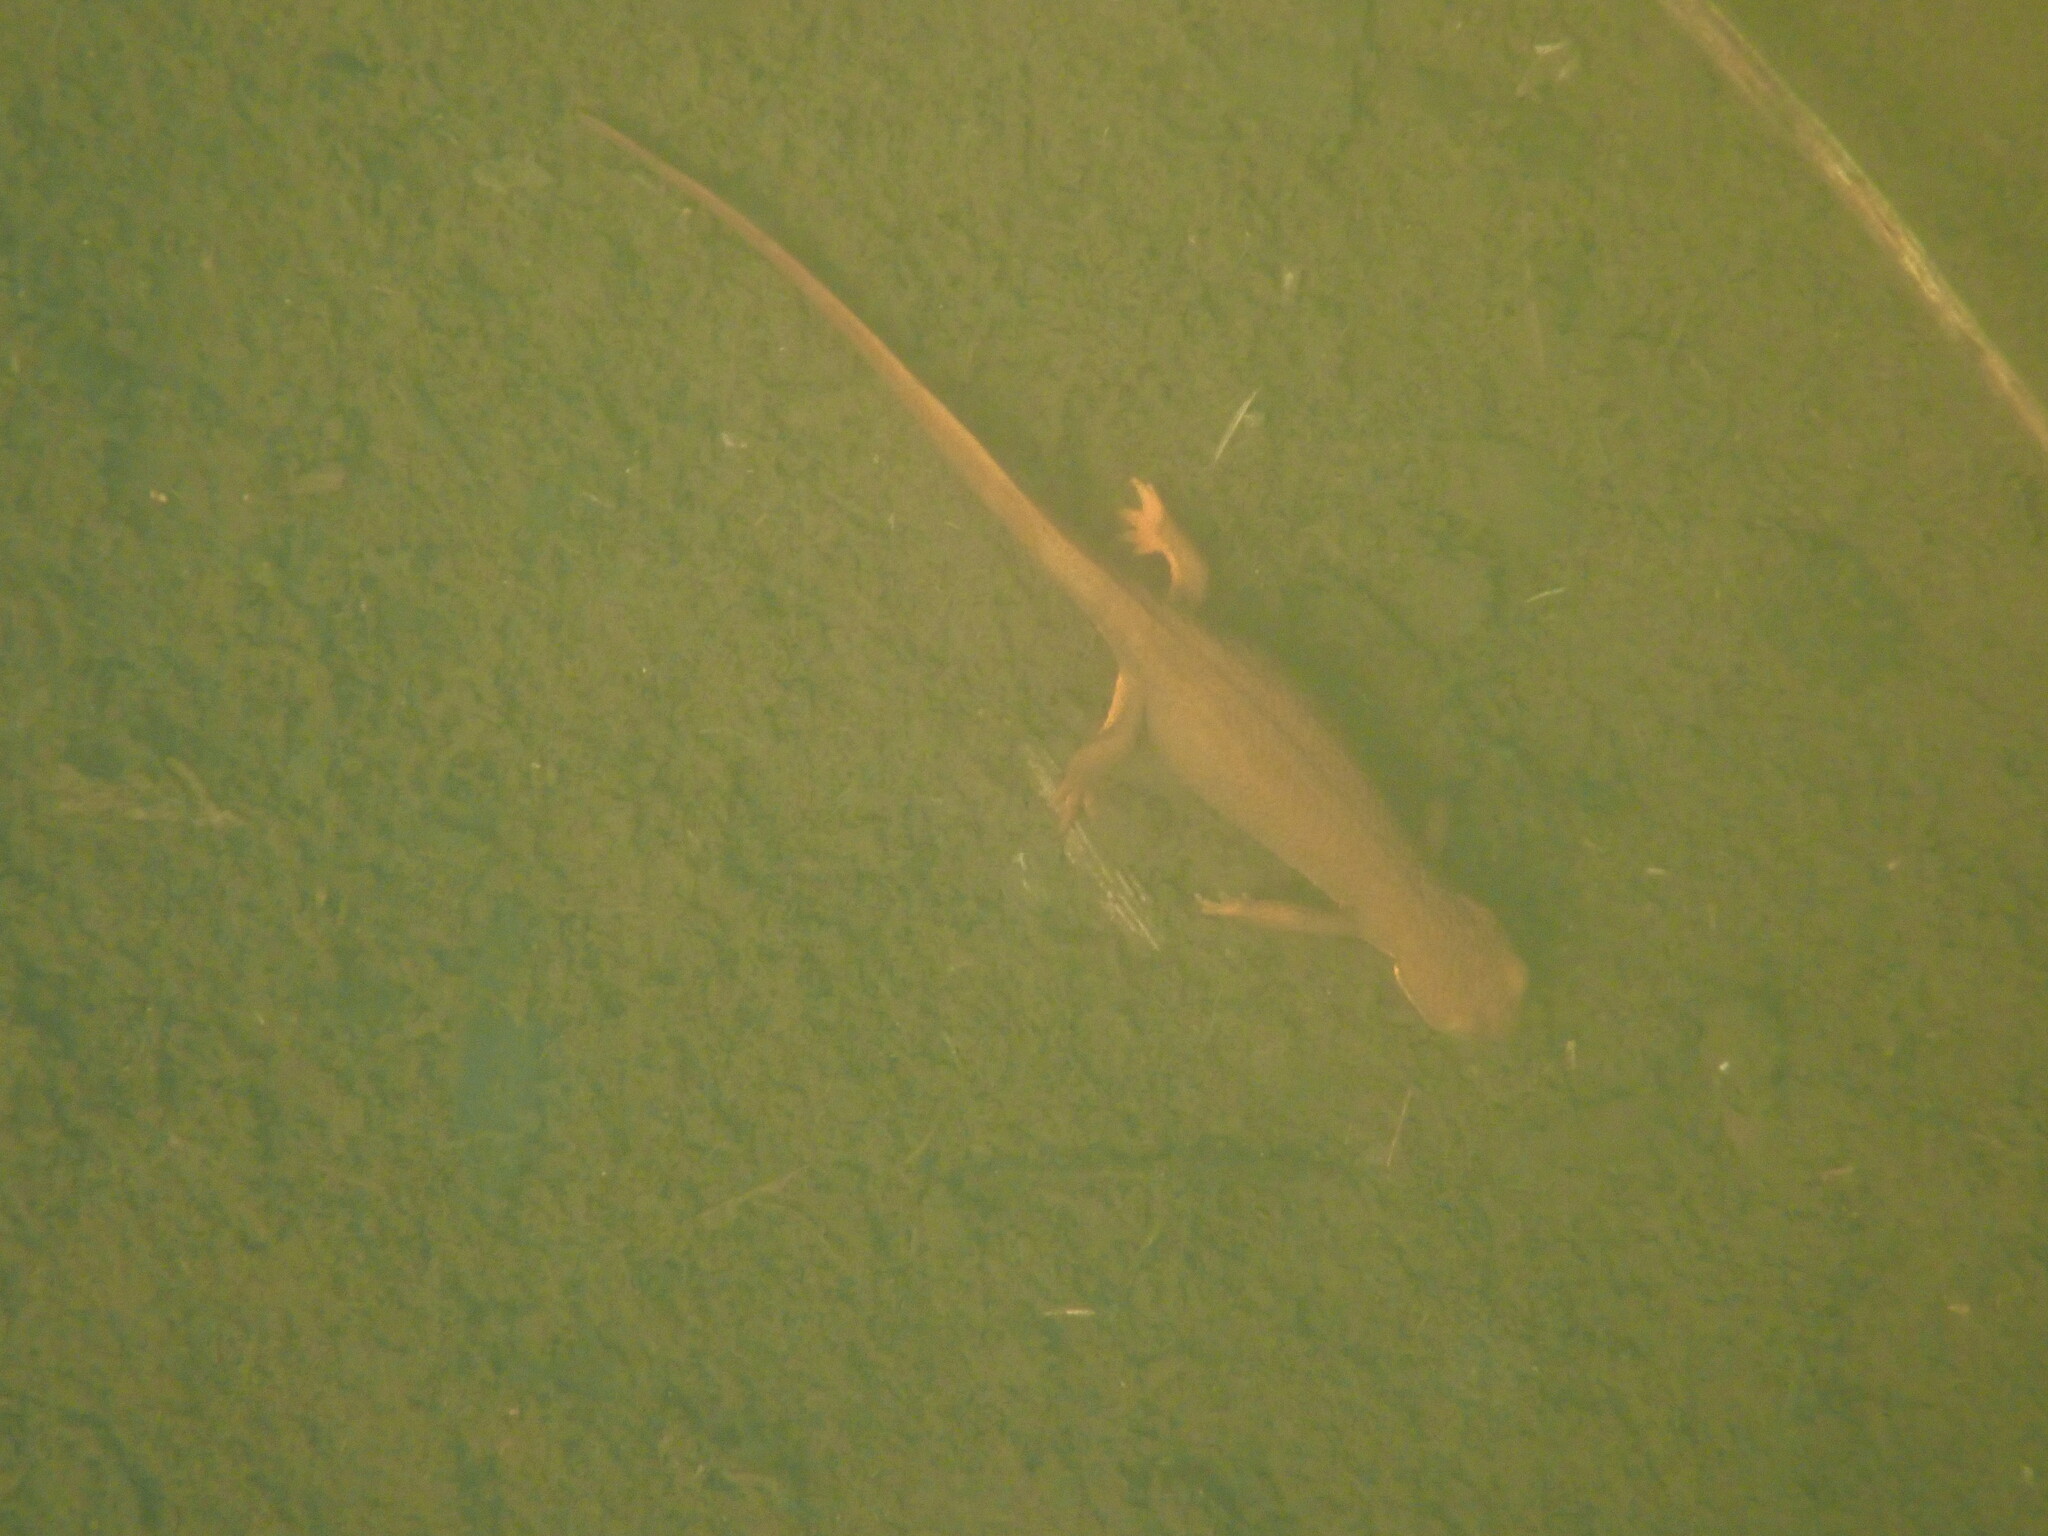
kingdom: Animalia
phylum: Chordata
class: Amphibia
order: Caudata
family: Salamandridae
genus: Taricha
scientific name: Taricha granulosa
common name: Roughskin newt
